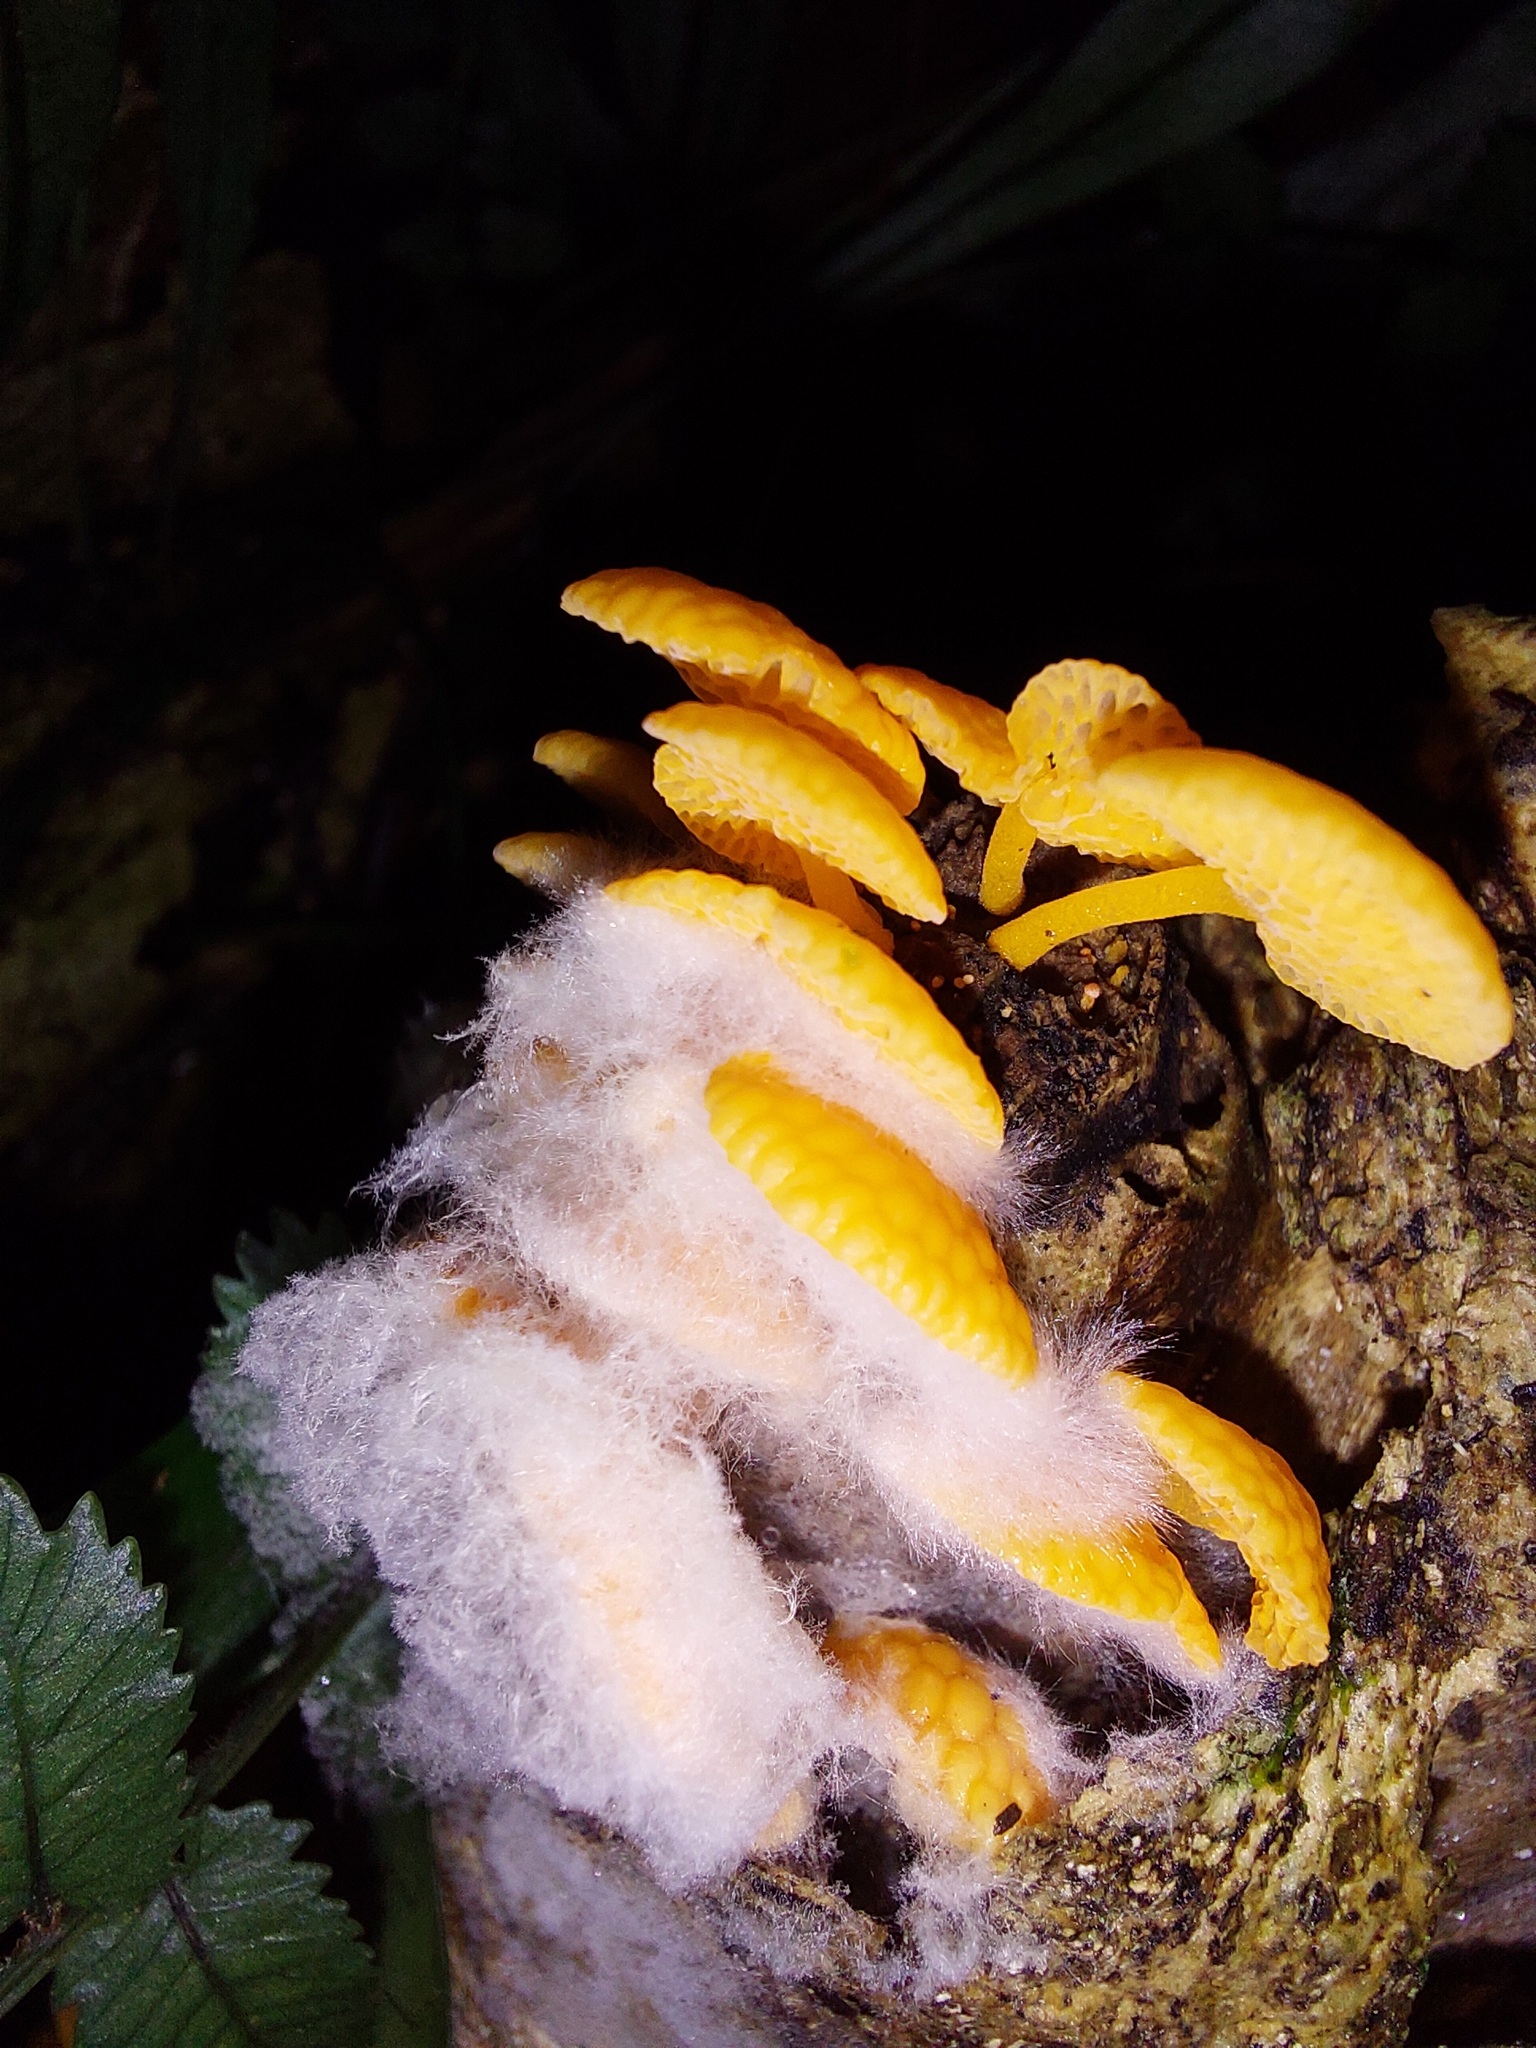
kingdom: Fungi
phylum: Basidiomycota
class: Agaricomycetes
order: Agaricales
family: Mycenaceae
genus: Favolaschia
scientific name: Favolaschia claudopus
